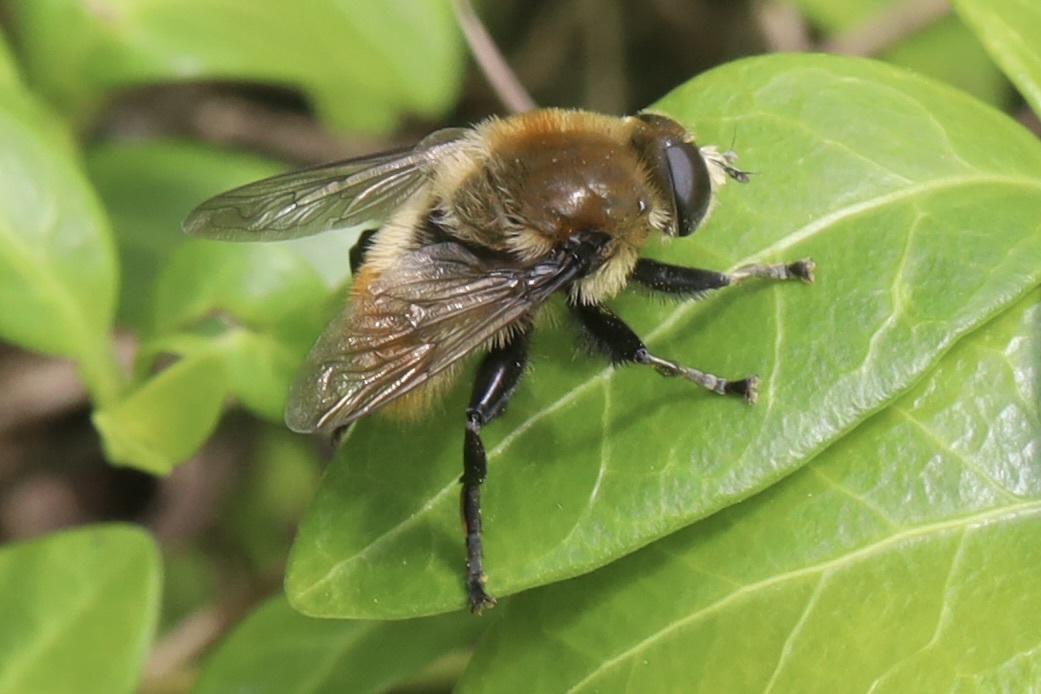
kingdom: Animalia
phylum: Arthropoda
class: Insecta
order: Diptera
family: Syrphidae
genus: Merodon
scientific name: Merodon equestris
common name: Greater bulb-fly
